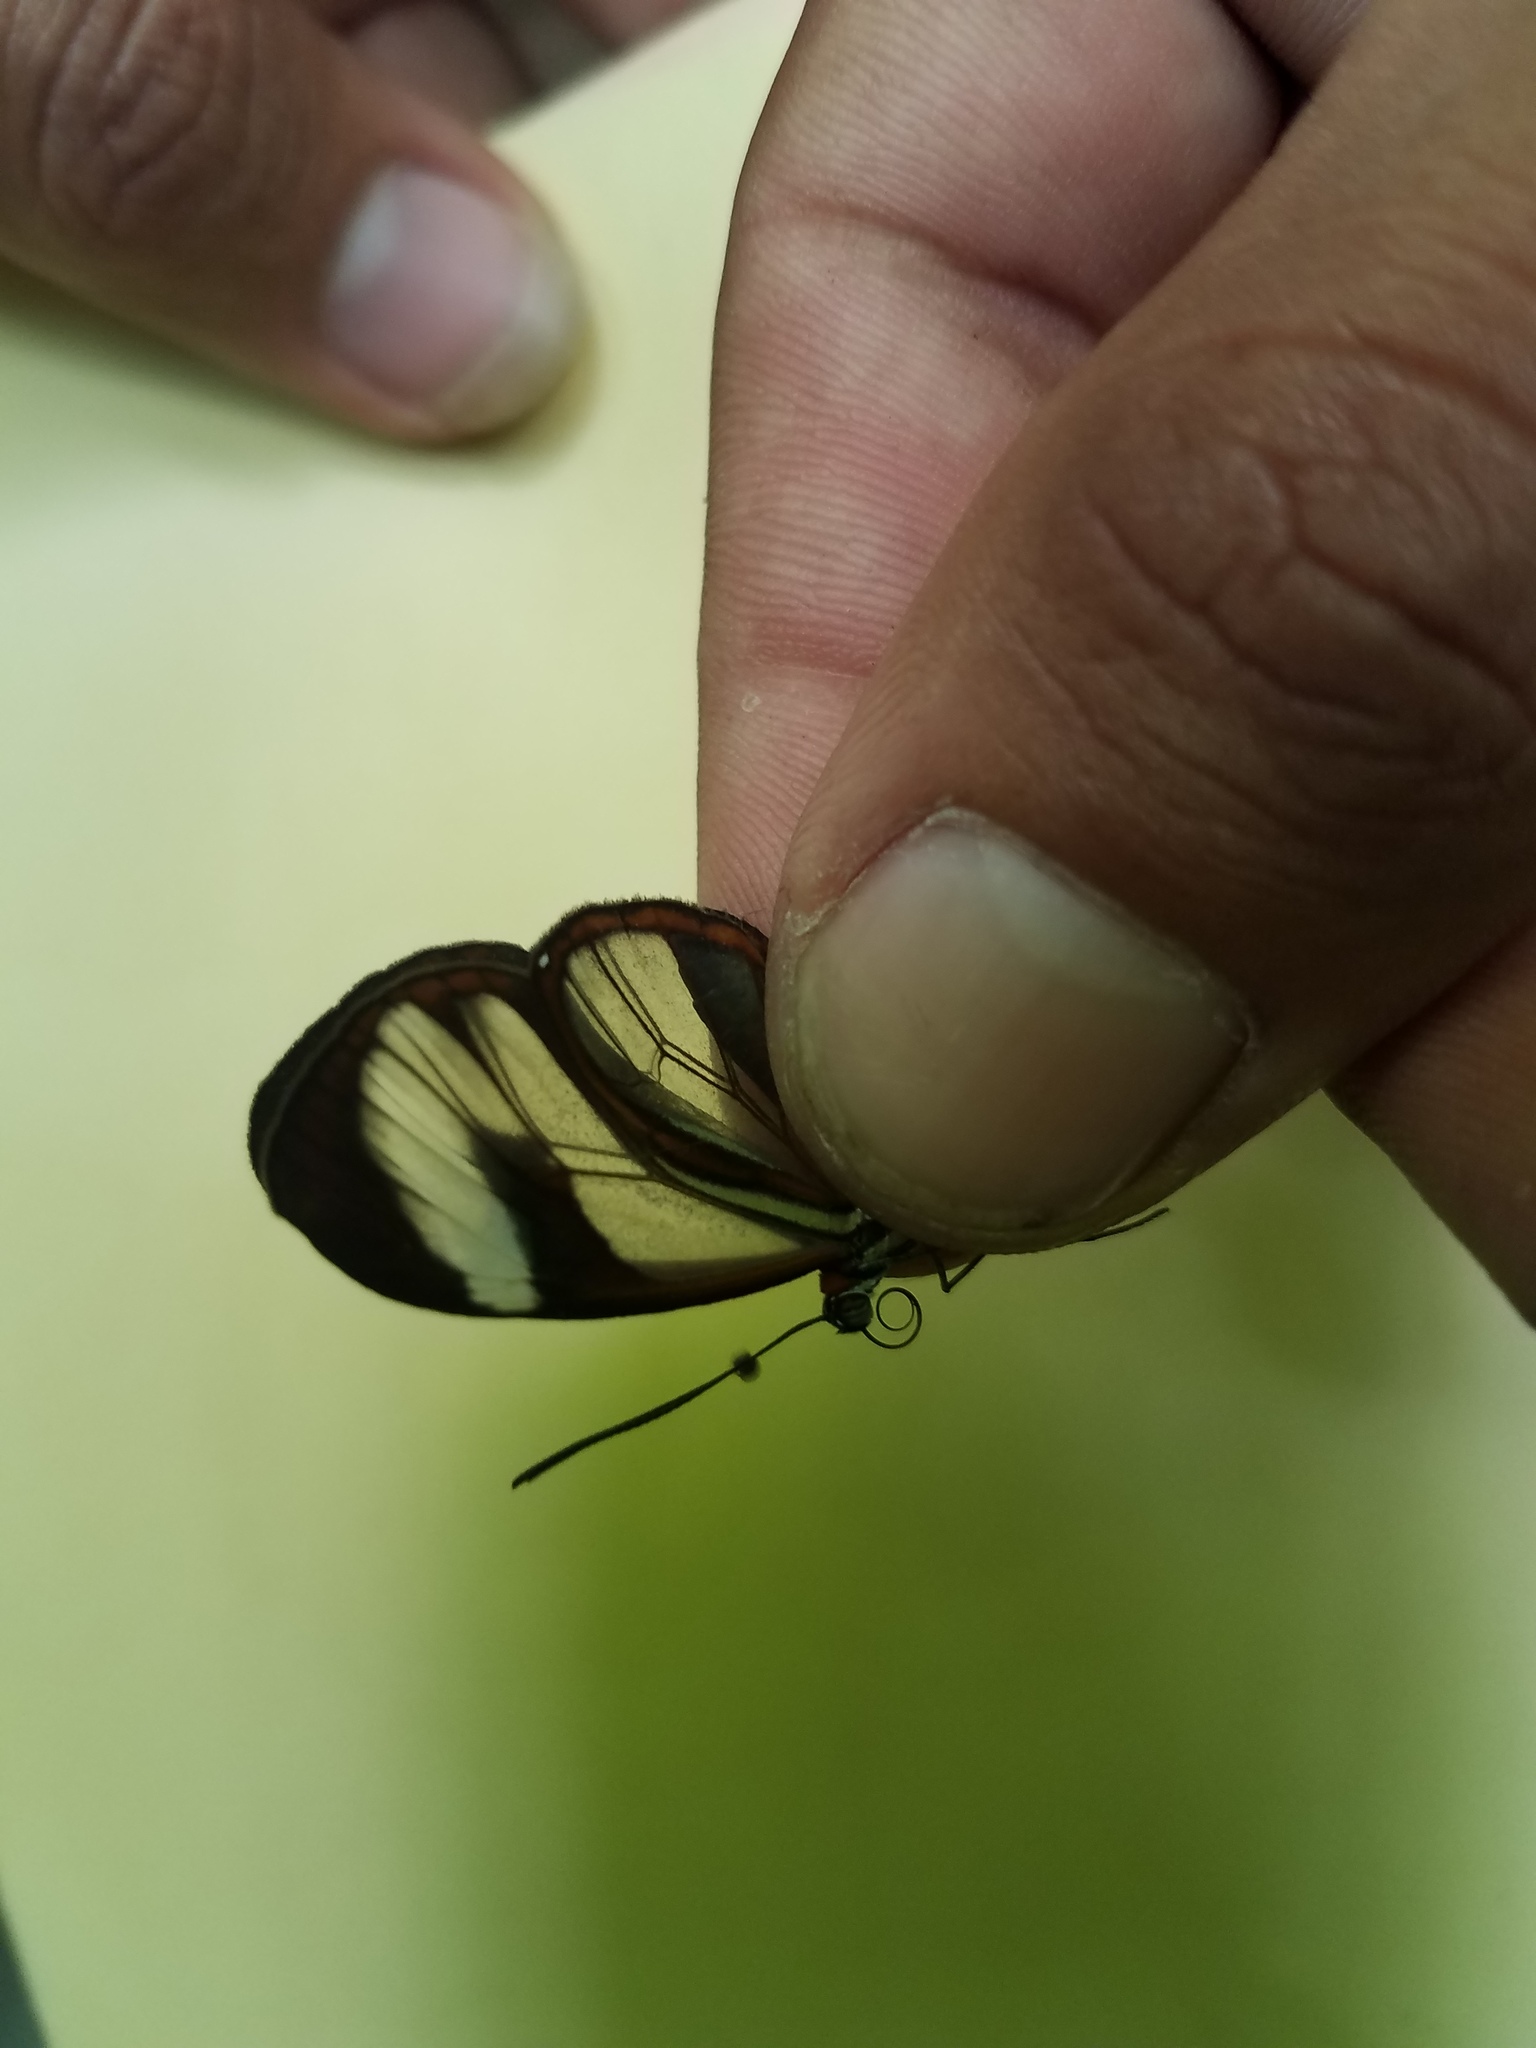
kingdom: Animalia
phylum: Arthropoda
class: Insecta
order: Lepidoptera
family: Nymphalidae
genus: Ithomia
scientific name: Ithomia patilla
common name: Patilla clearwing
